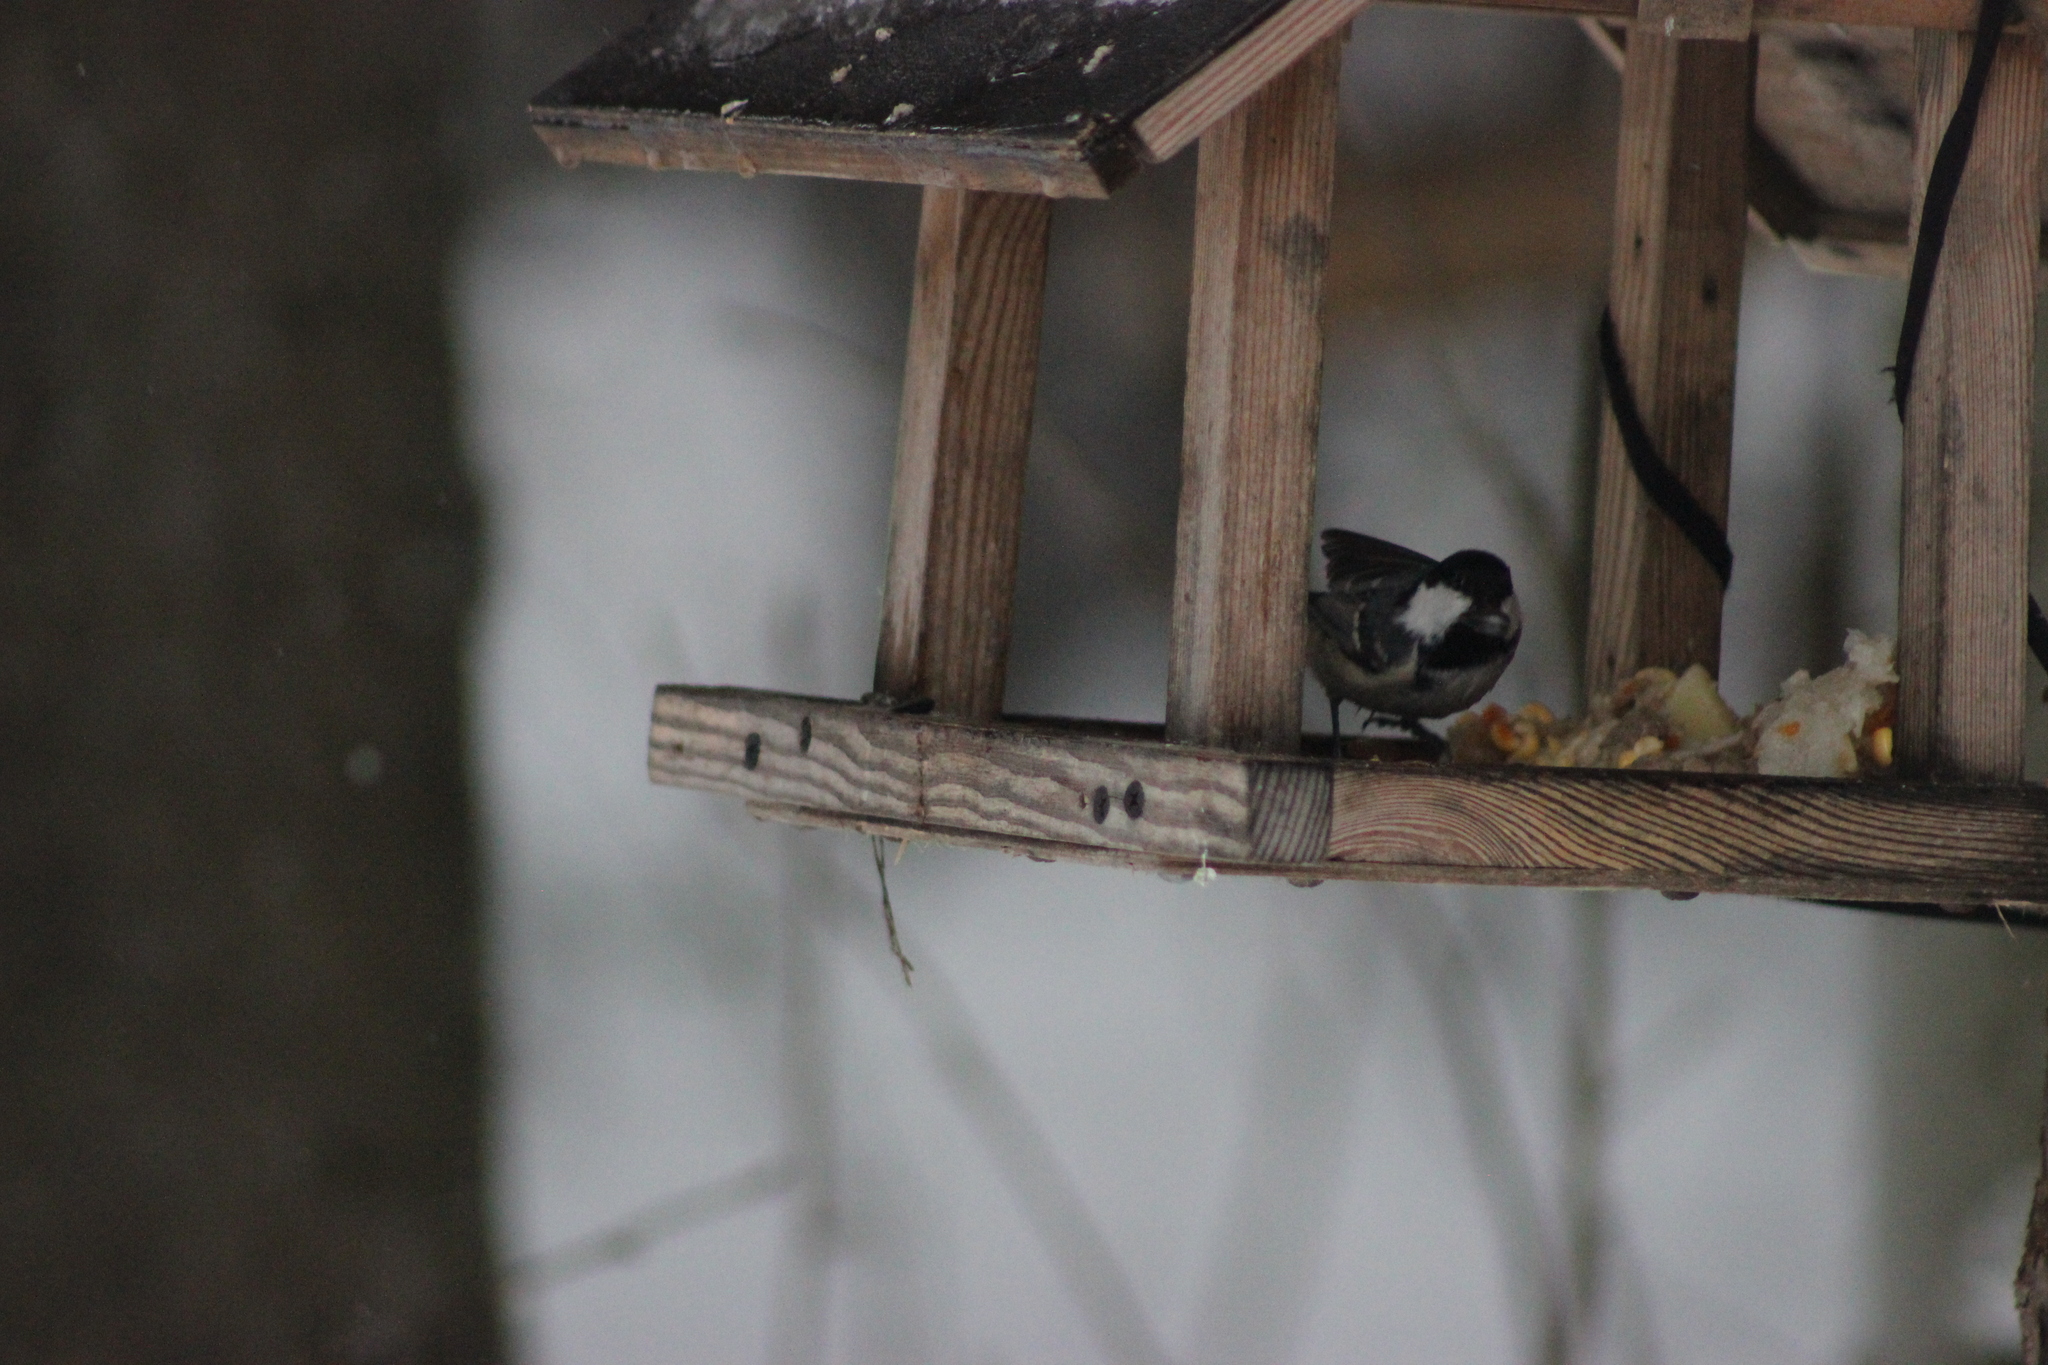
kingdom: Animalia
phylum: Chordata
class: Aves
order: Passeriformes
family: Paridae
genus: Periparus
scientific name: Periparus ater
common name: Coal tit
